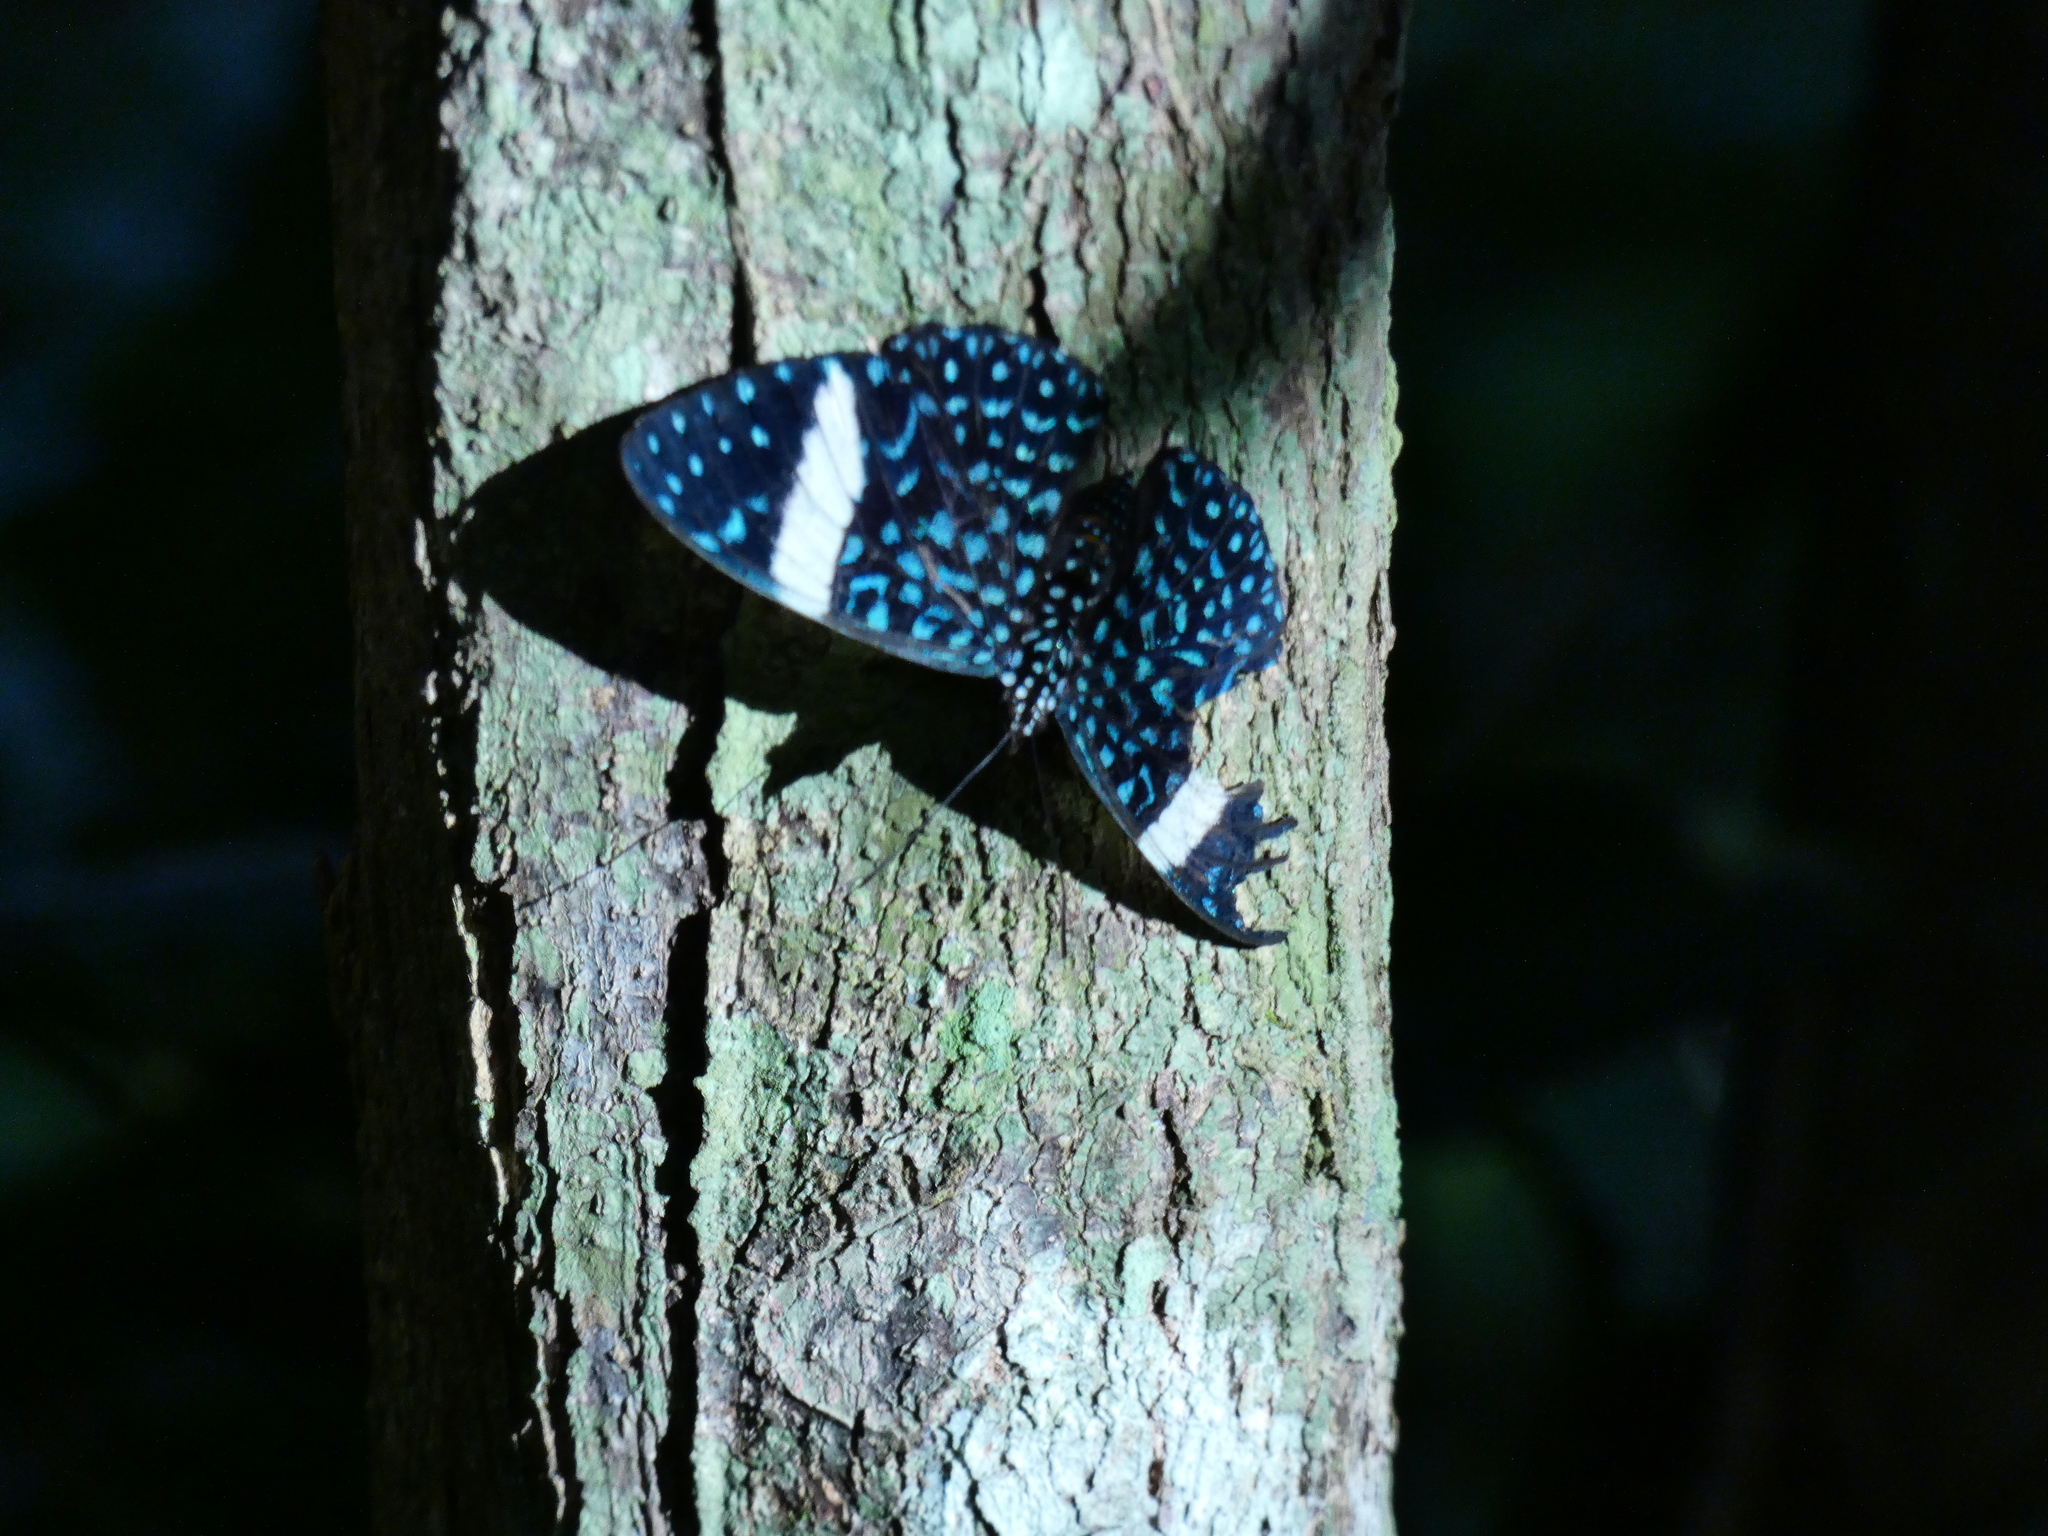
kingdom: Animalia
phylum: Arthropoda
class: Insecta
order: Lepidoptera
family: Nymphalidae
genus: Hamadryas
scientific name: Hamadryas laodamia
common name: Starry night cracker
